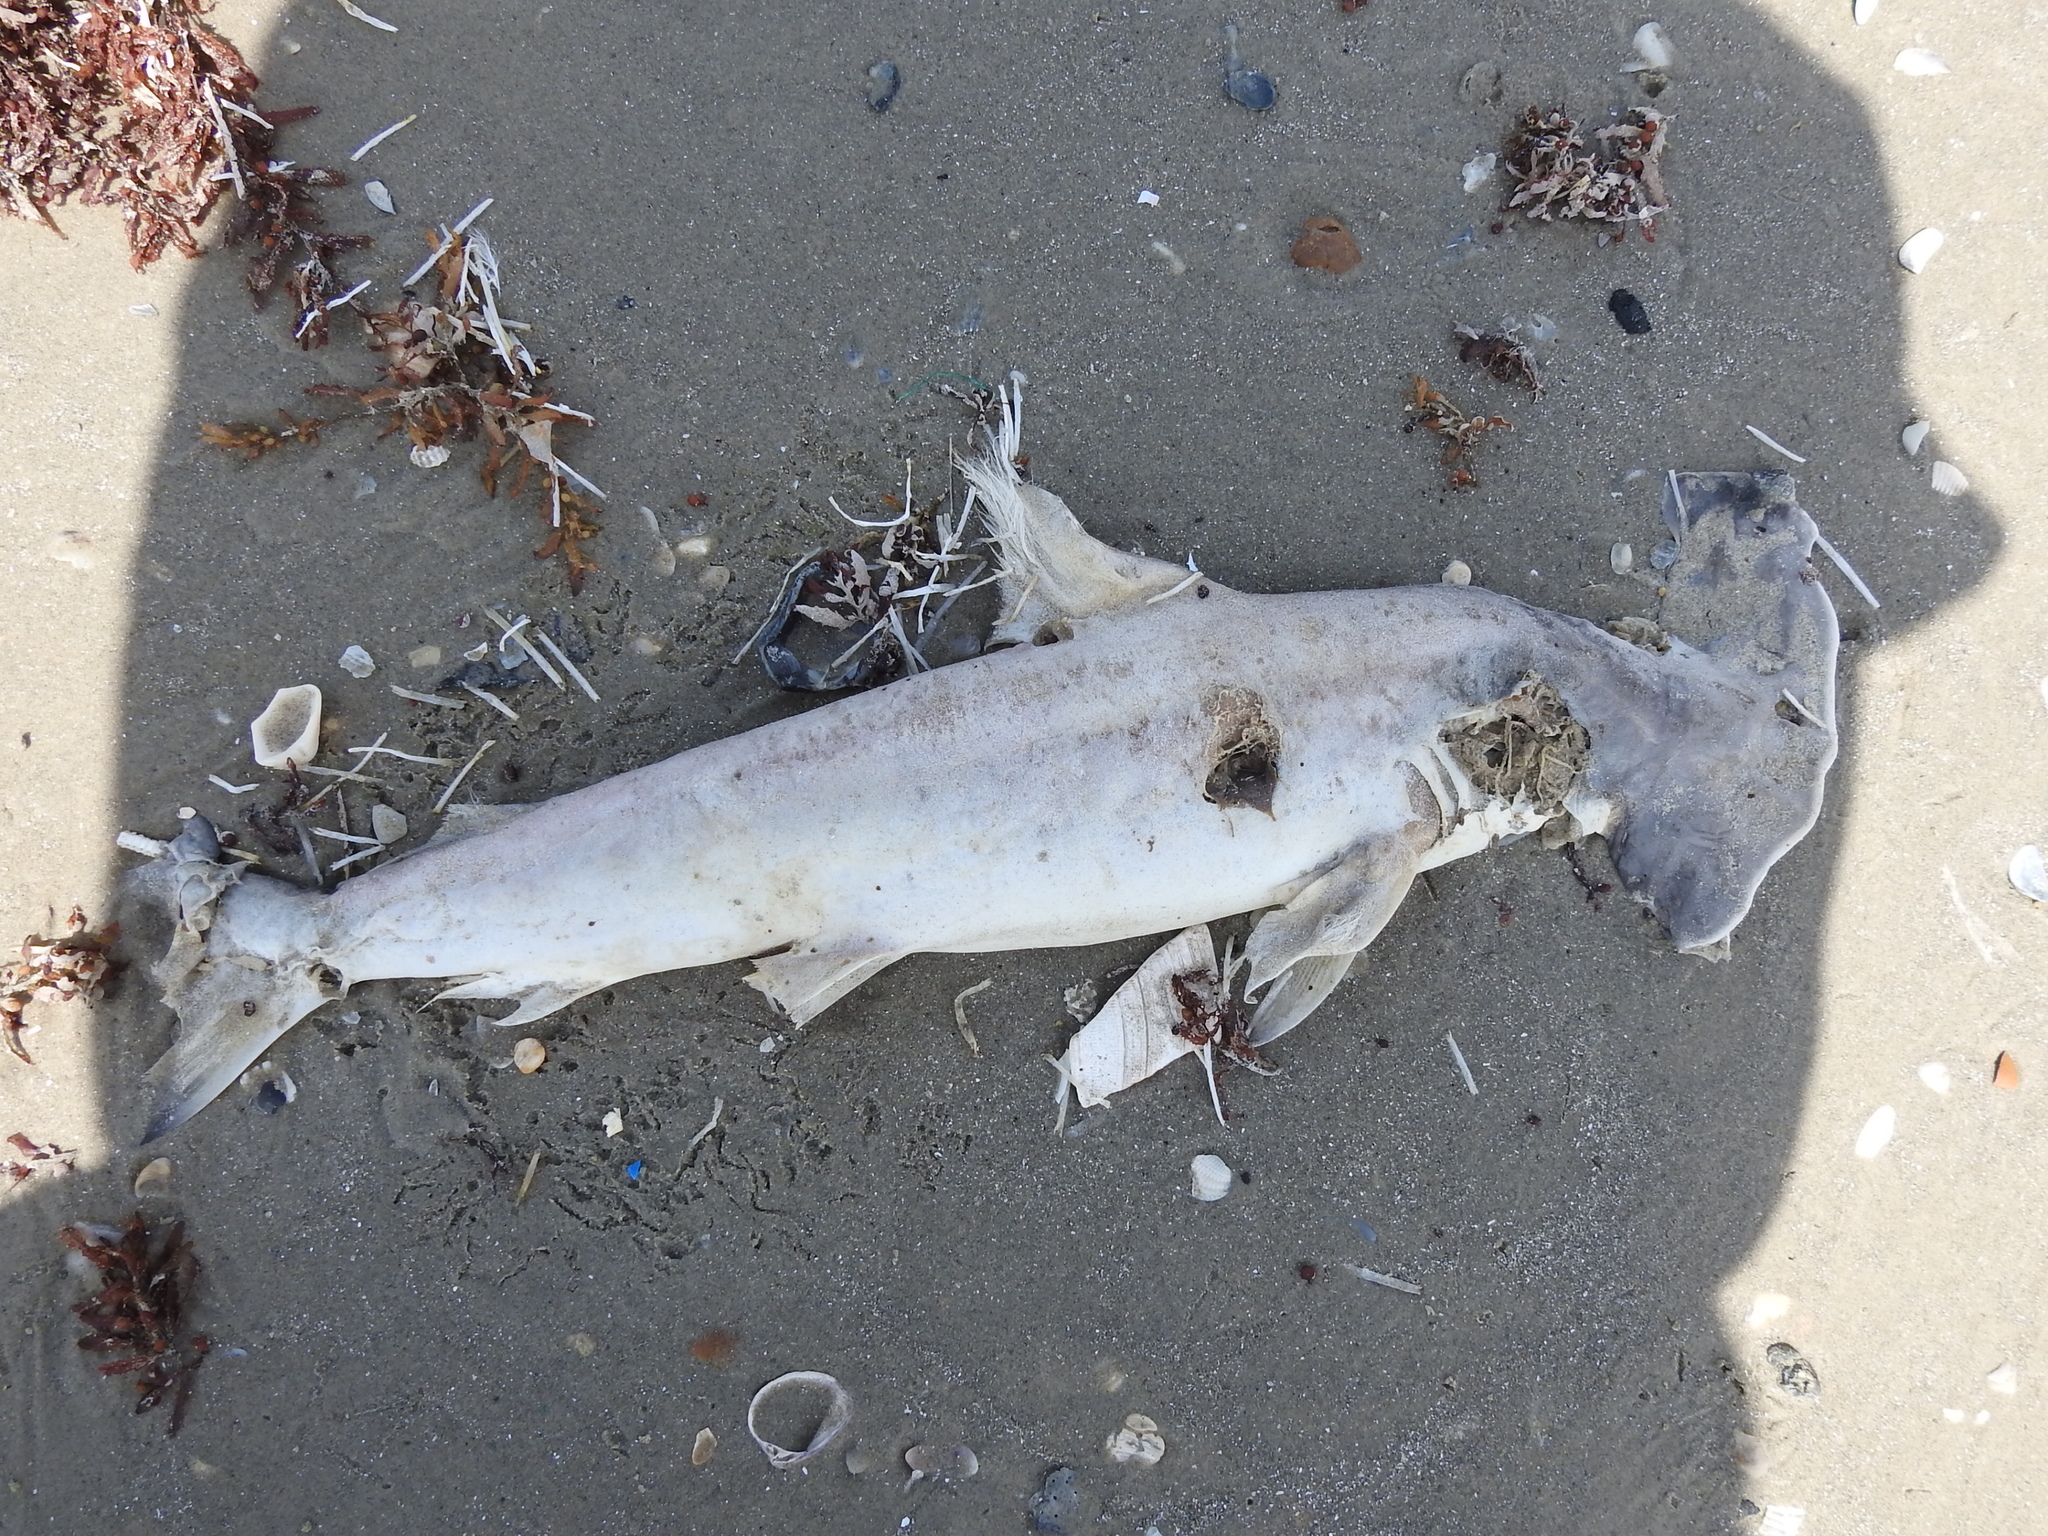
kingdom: Animalia
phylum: Chordata
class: Elasmobranchii
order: Carcharhiniformes
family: Sphyrnidae
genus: Sphyrna
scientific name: Sphyrna lewini
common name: Scalloped hammerhead
